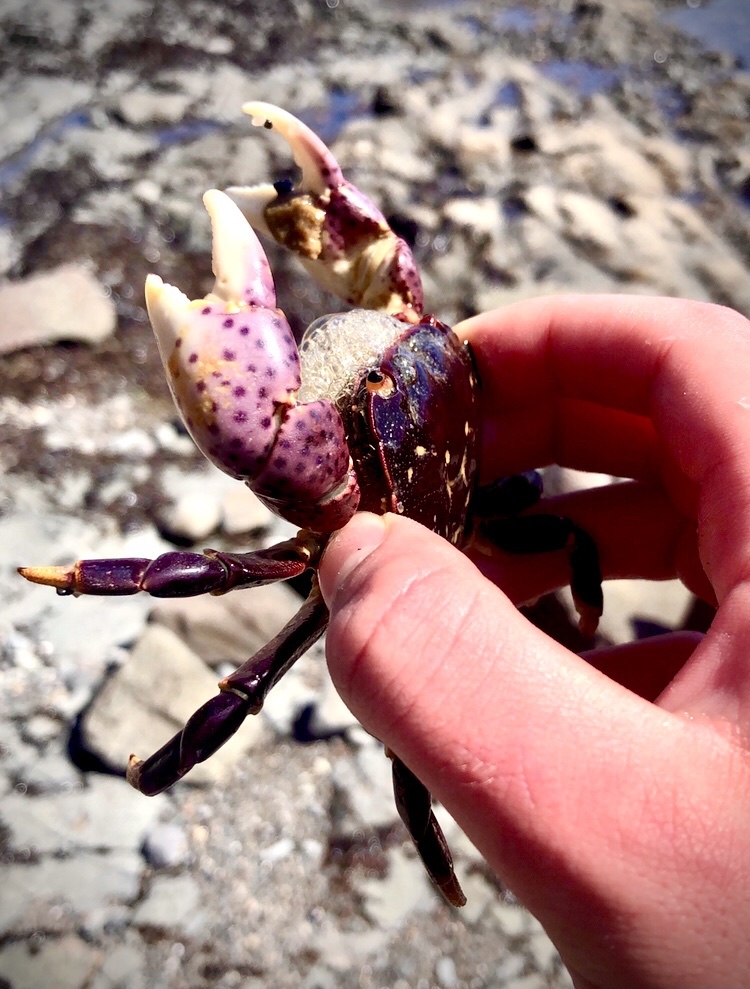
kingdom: Animalia
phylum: Arthropoda
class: Malacostraca
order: Decapoda
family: Varunidae
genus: Hemigrapsus
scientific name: Hemigrapsus nudus
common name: Purple shore crab
